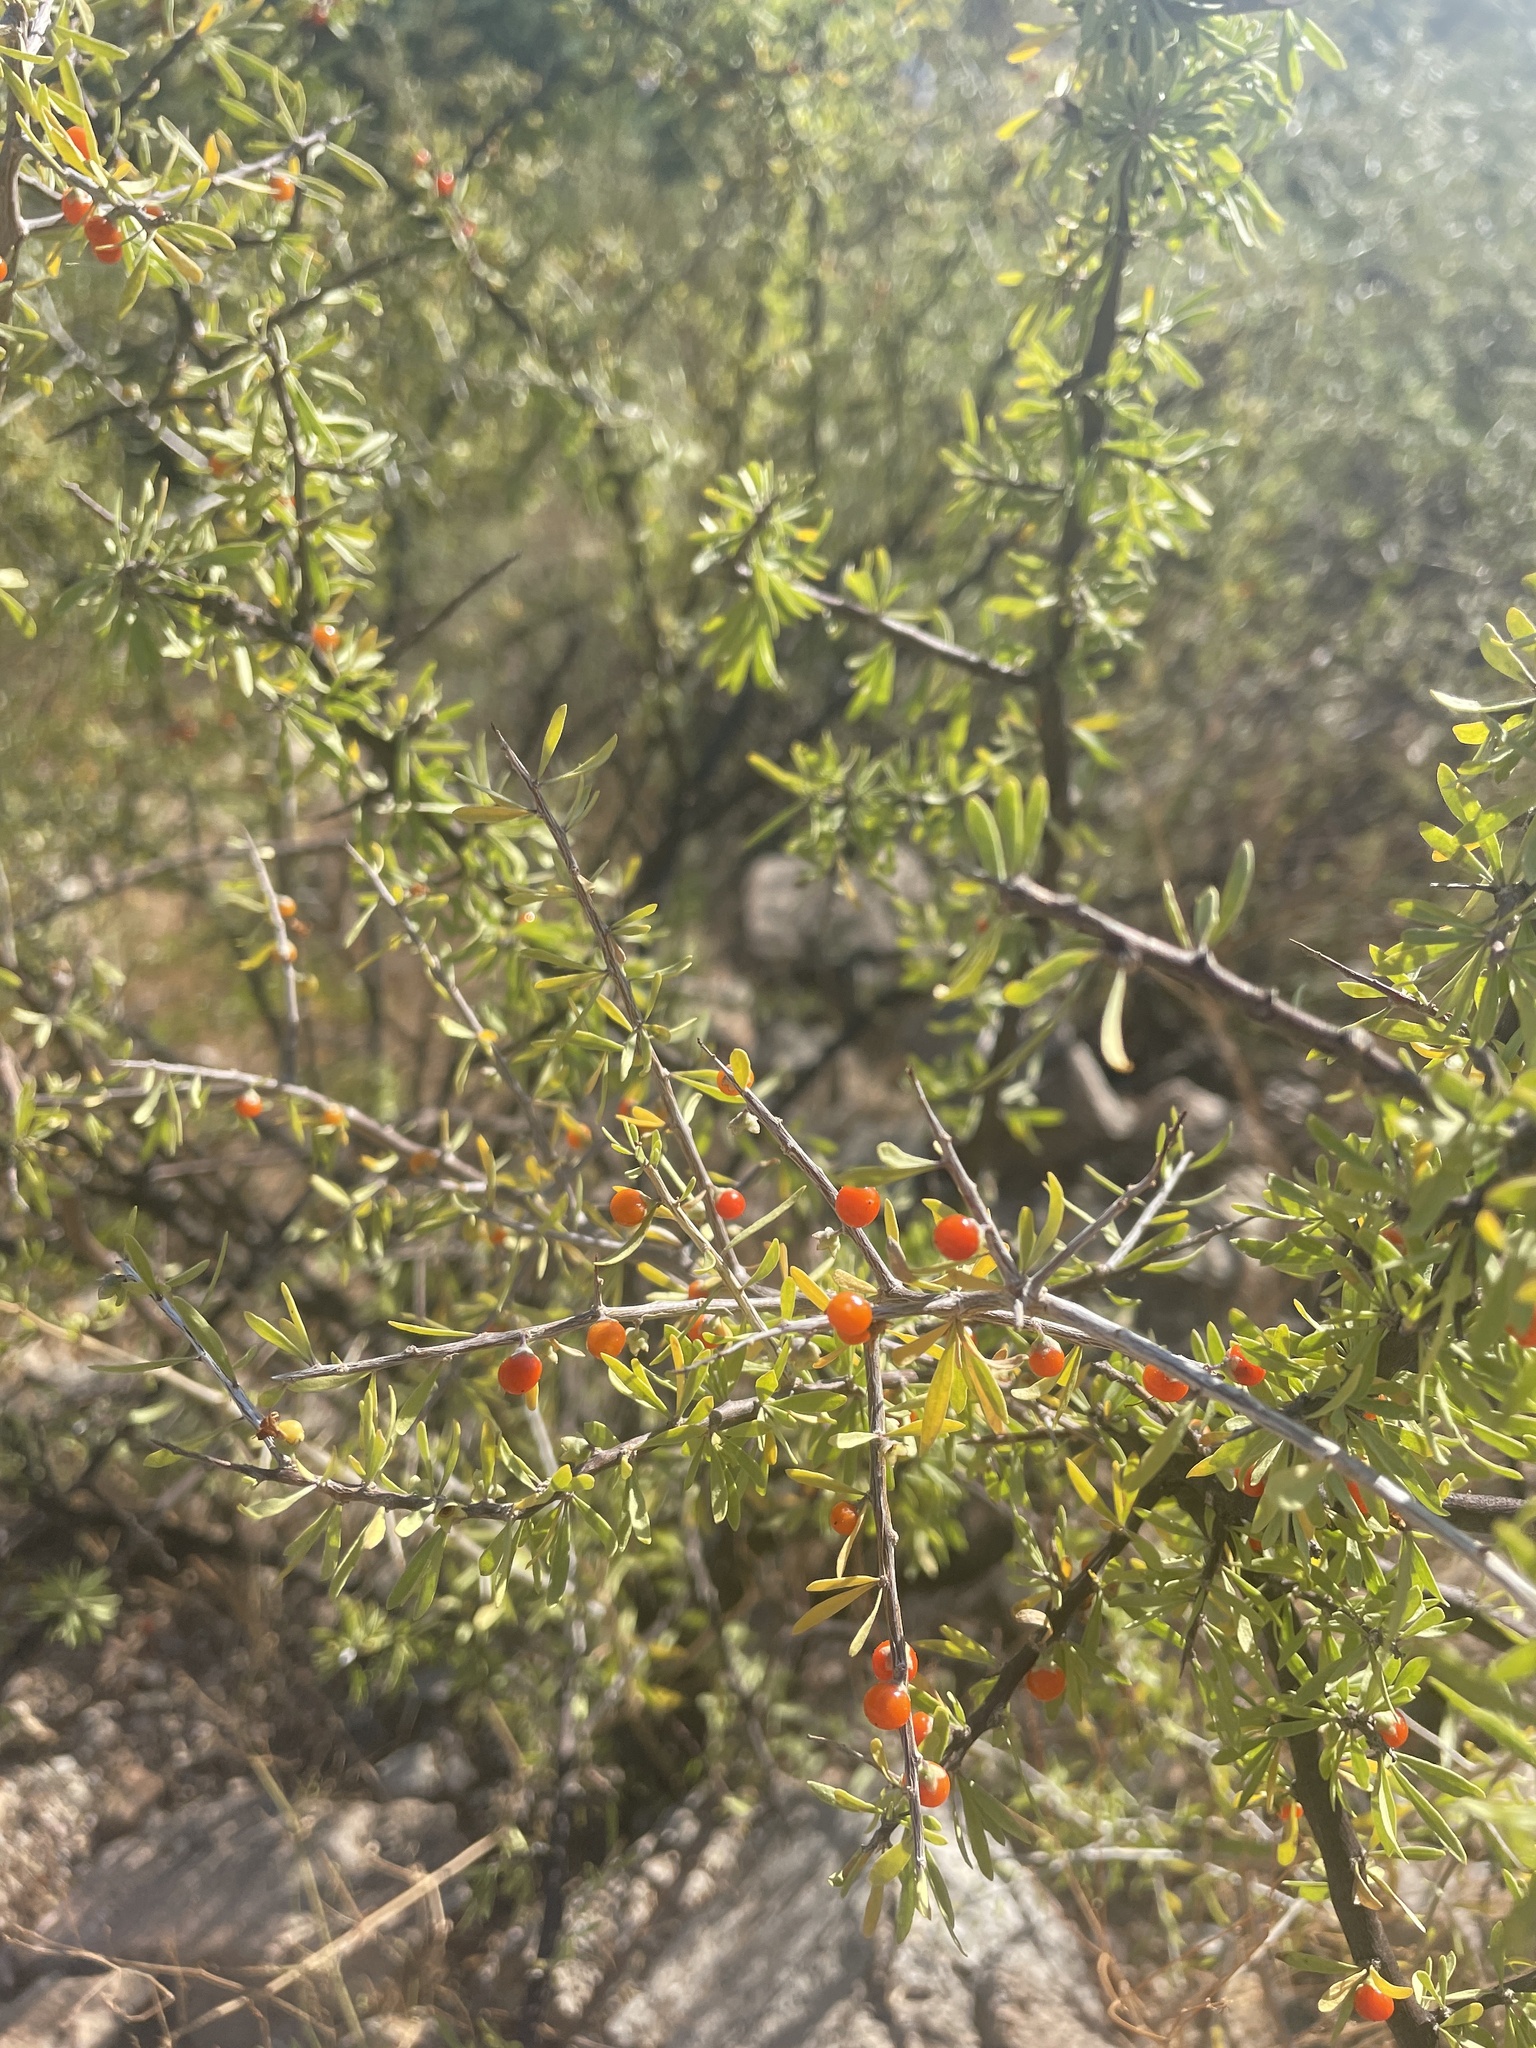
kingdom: Plantae
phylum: Tracheophyta
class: Magnoliopsida
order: Solanales
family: Solanaceae
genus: Lycium
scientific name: Lycium berlandieri
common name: Berlandier wolfberry
